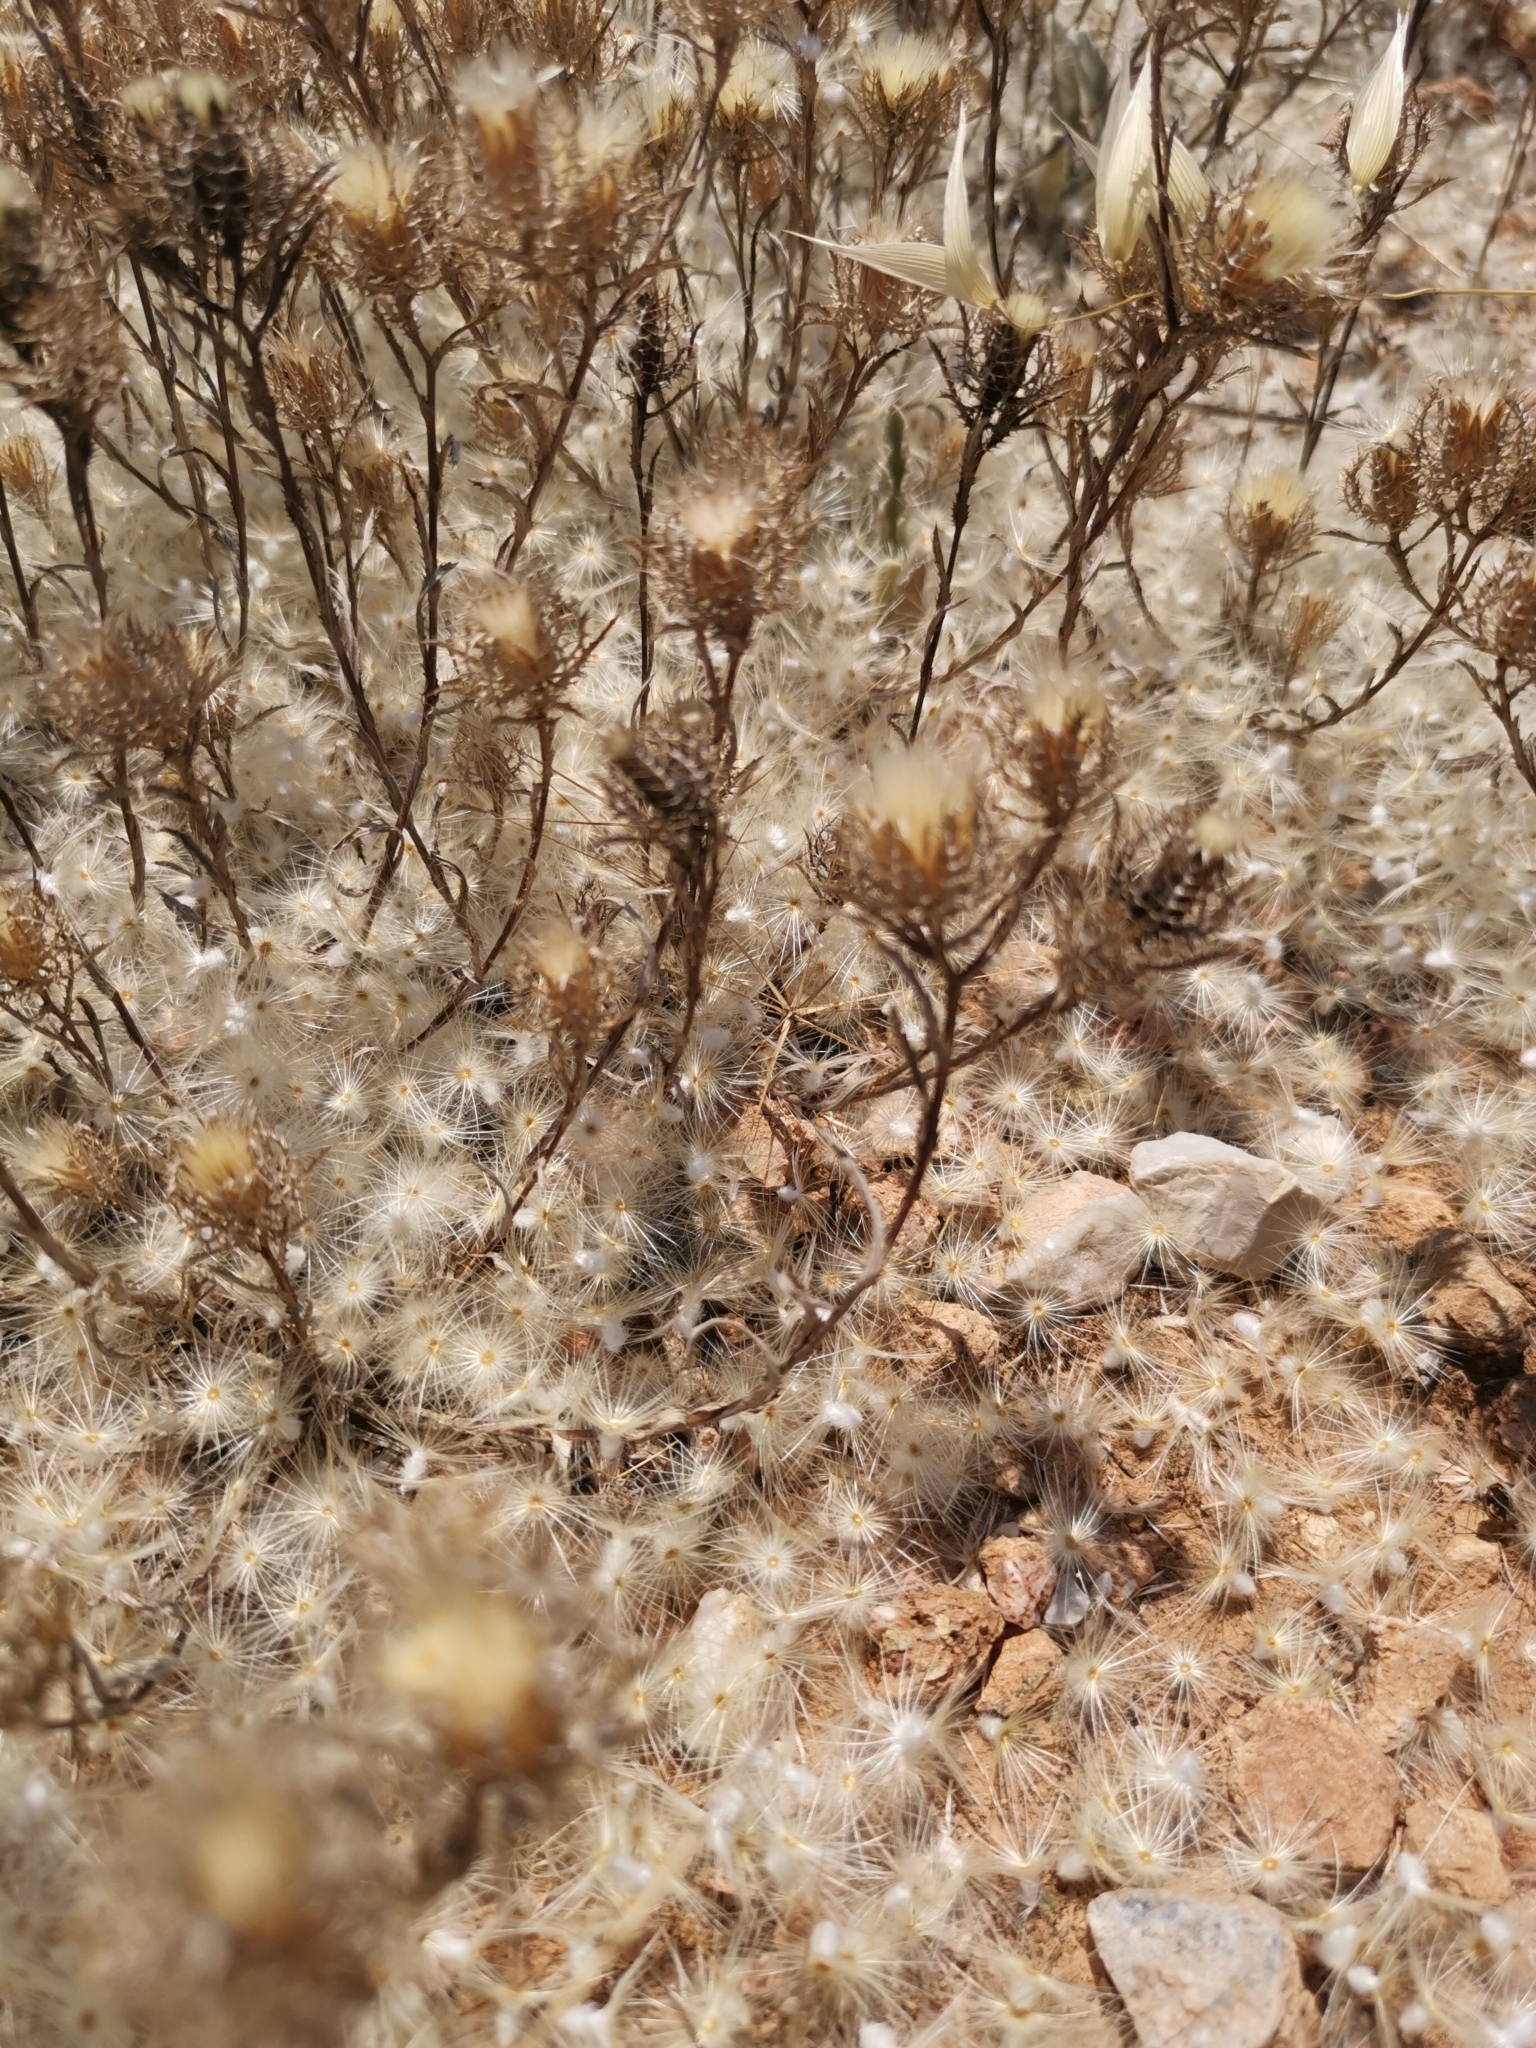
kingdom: Plantae
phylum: Tracheophyta
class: Magnoliopsida
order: Asterales
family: Asteraceae
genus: Atractylis
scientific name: Atractylis cancellata
